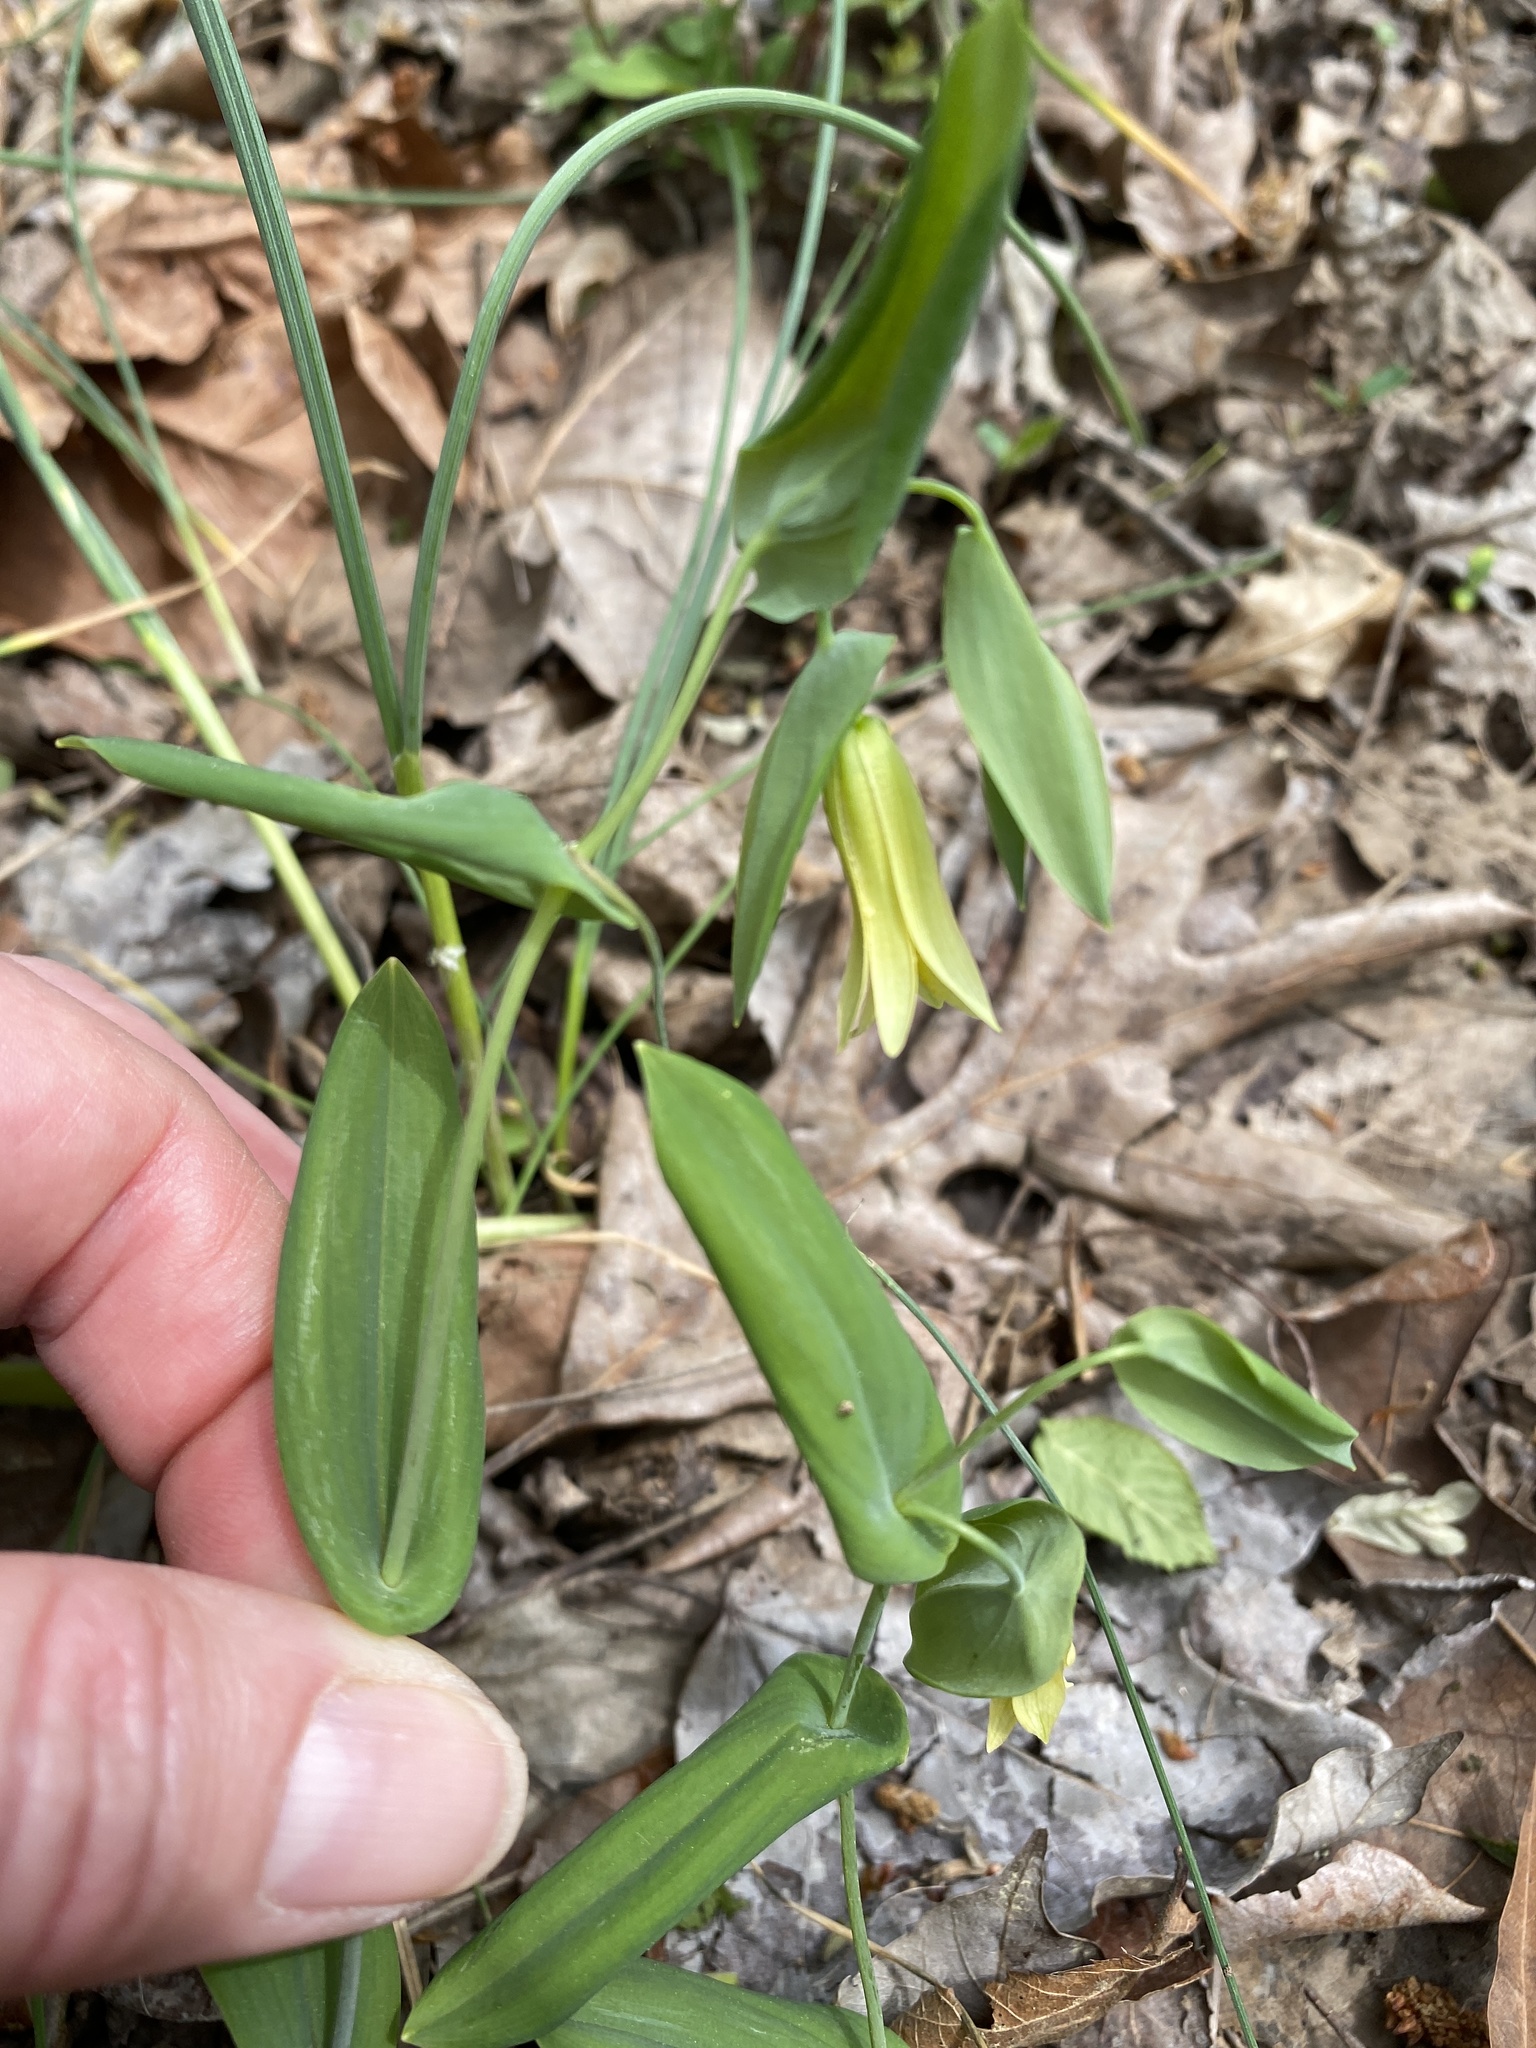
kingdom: Plantae
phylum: Tracheophyta
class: Liliopsida
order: Liliales
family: Colchicaceae
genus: Uvularia
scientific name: Uvularia perfoliata
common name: Perfoliate bellwort
